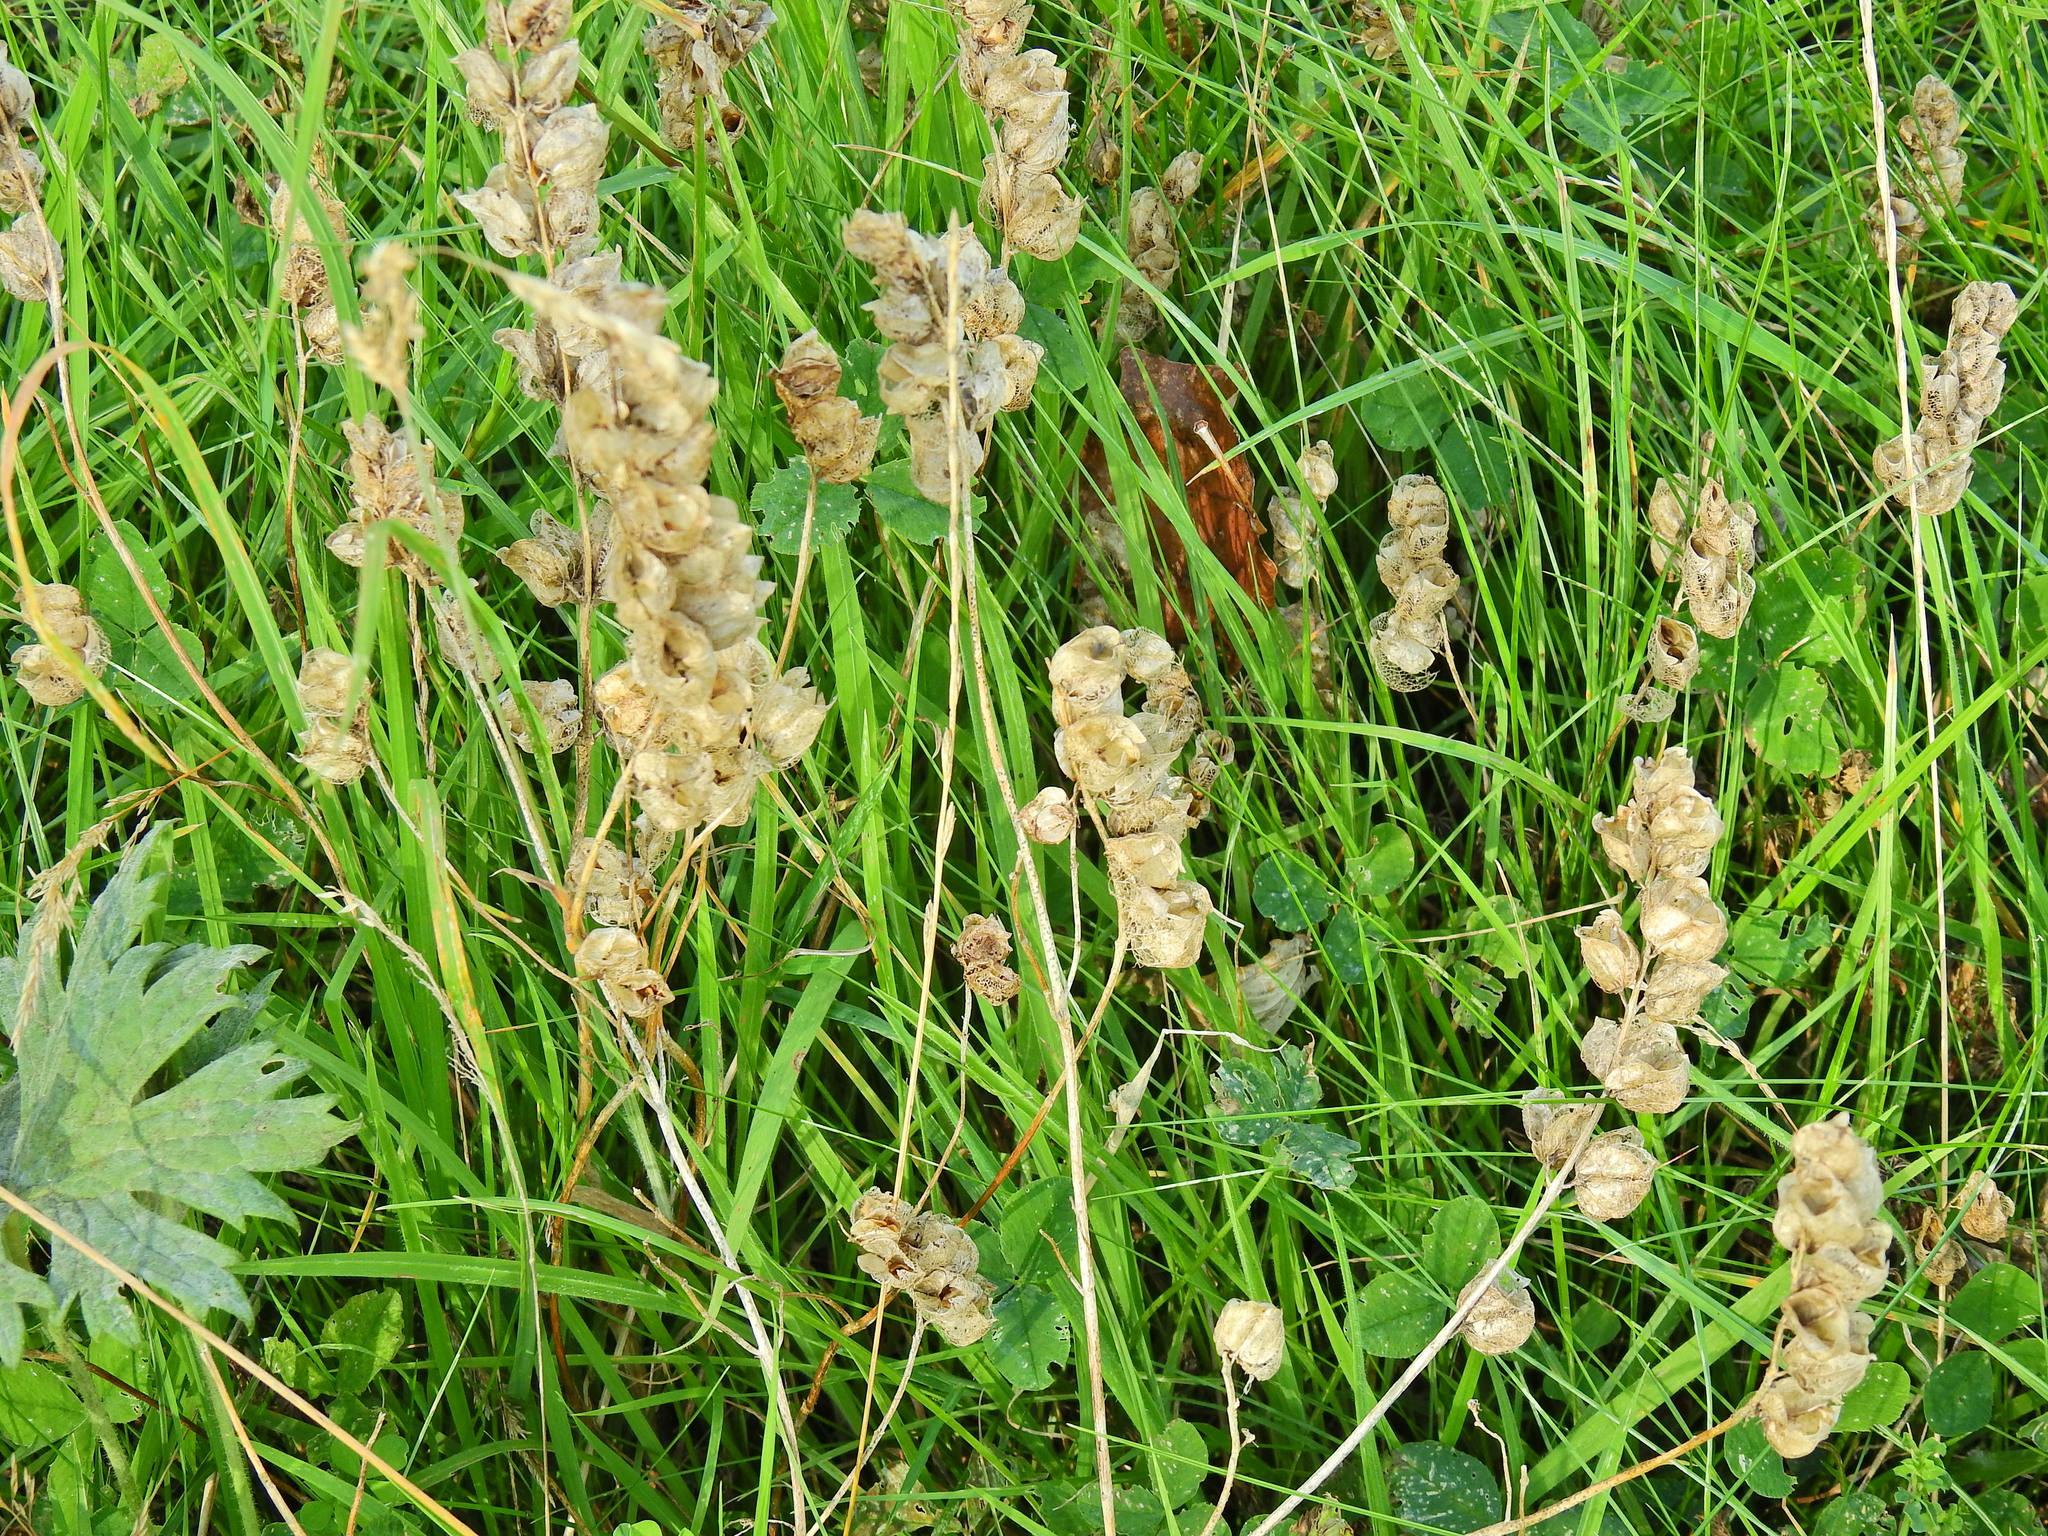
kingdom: Plantae
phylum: Tracheophyta
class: Magnoliopsida
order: Lamiales
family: Orobanchaceae
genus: Rhinanthus
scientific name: Rhinanthus minor
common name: Yellow-rattle
